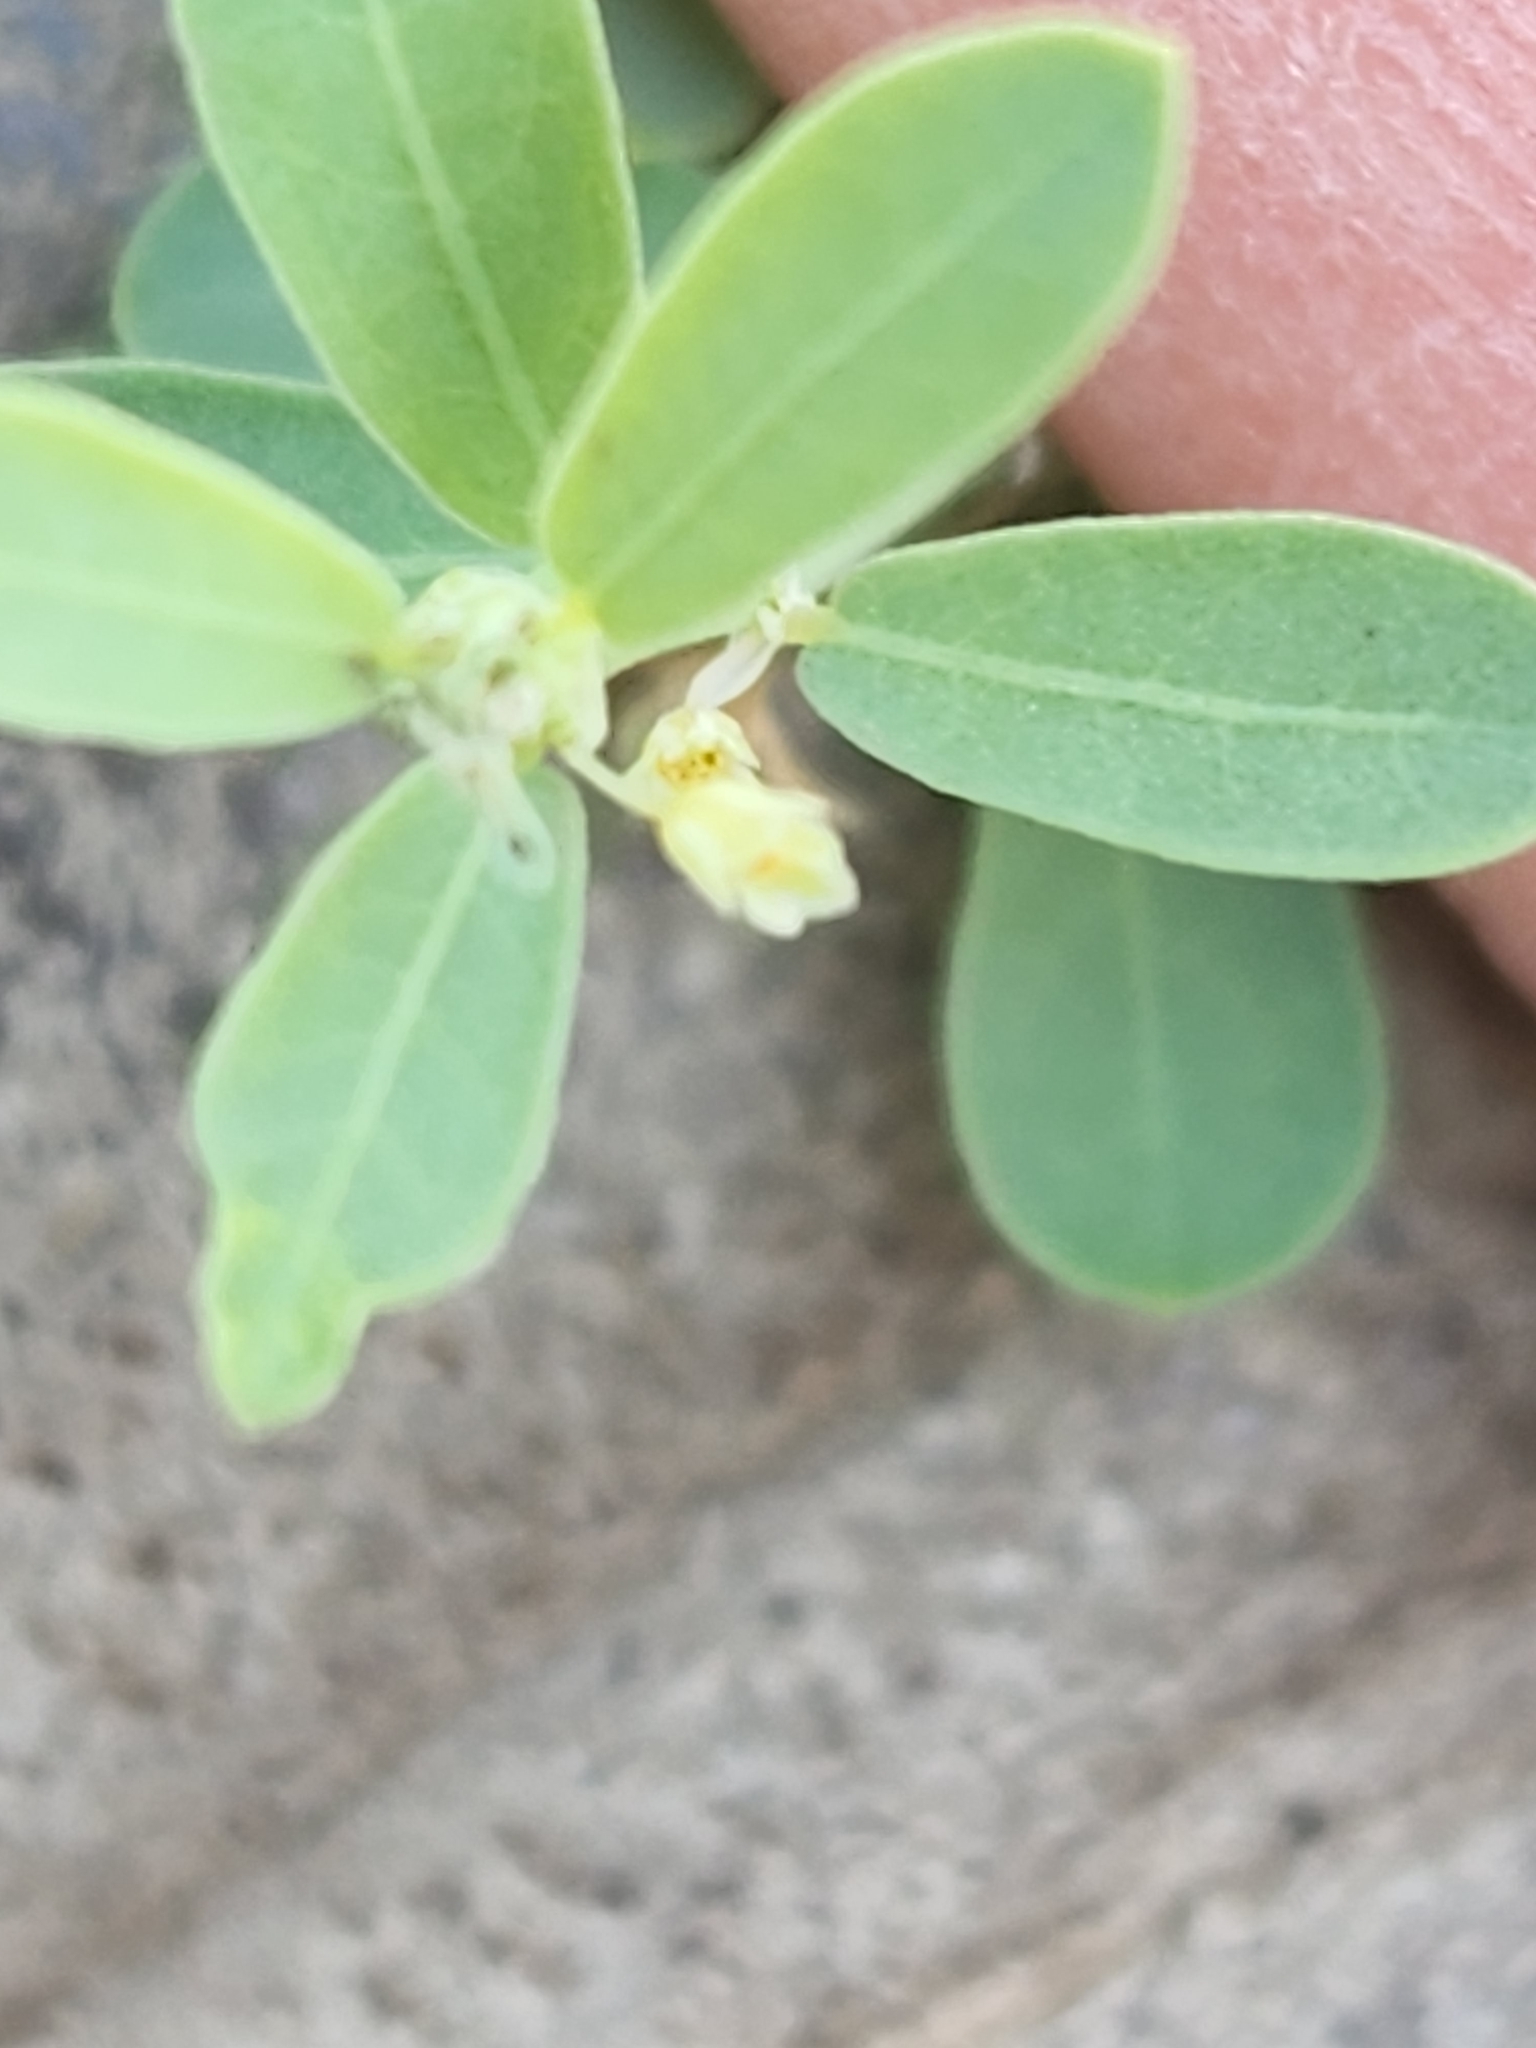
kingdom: Plantae
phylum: Tracheophyta
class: Magnoliopsida
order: Malpighiales
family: Phyllanthaceae
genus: Phyllanthus
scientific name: Phyllanthus polygonoides
